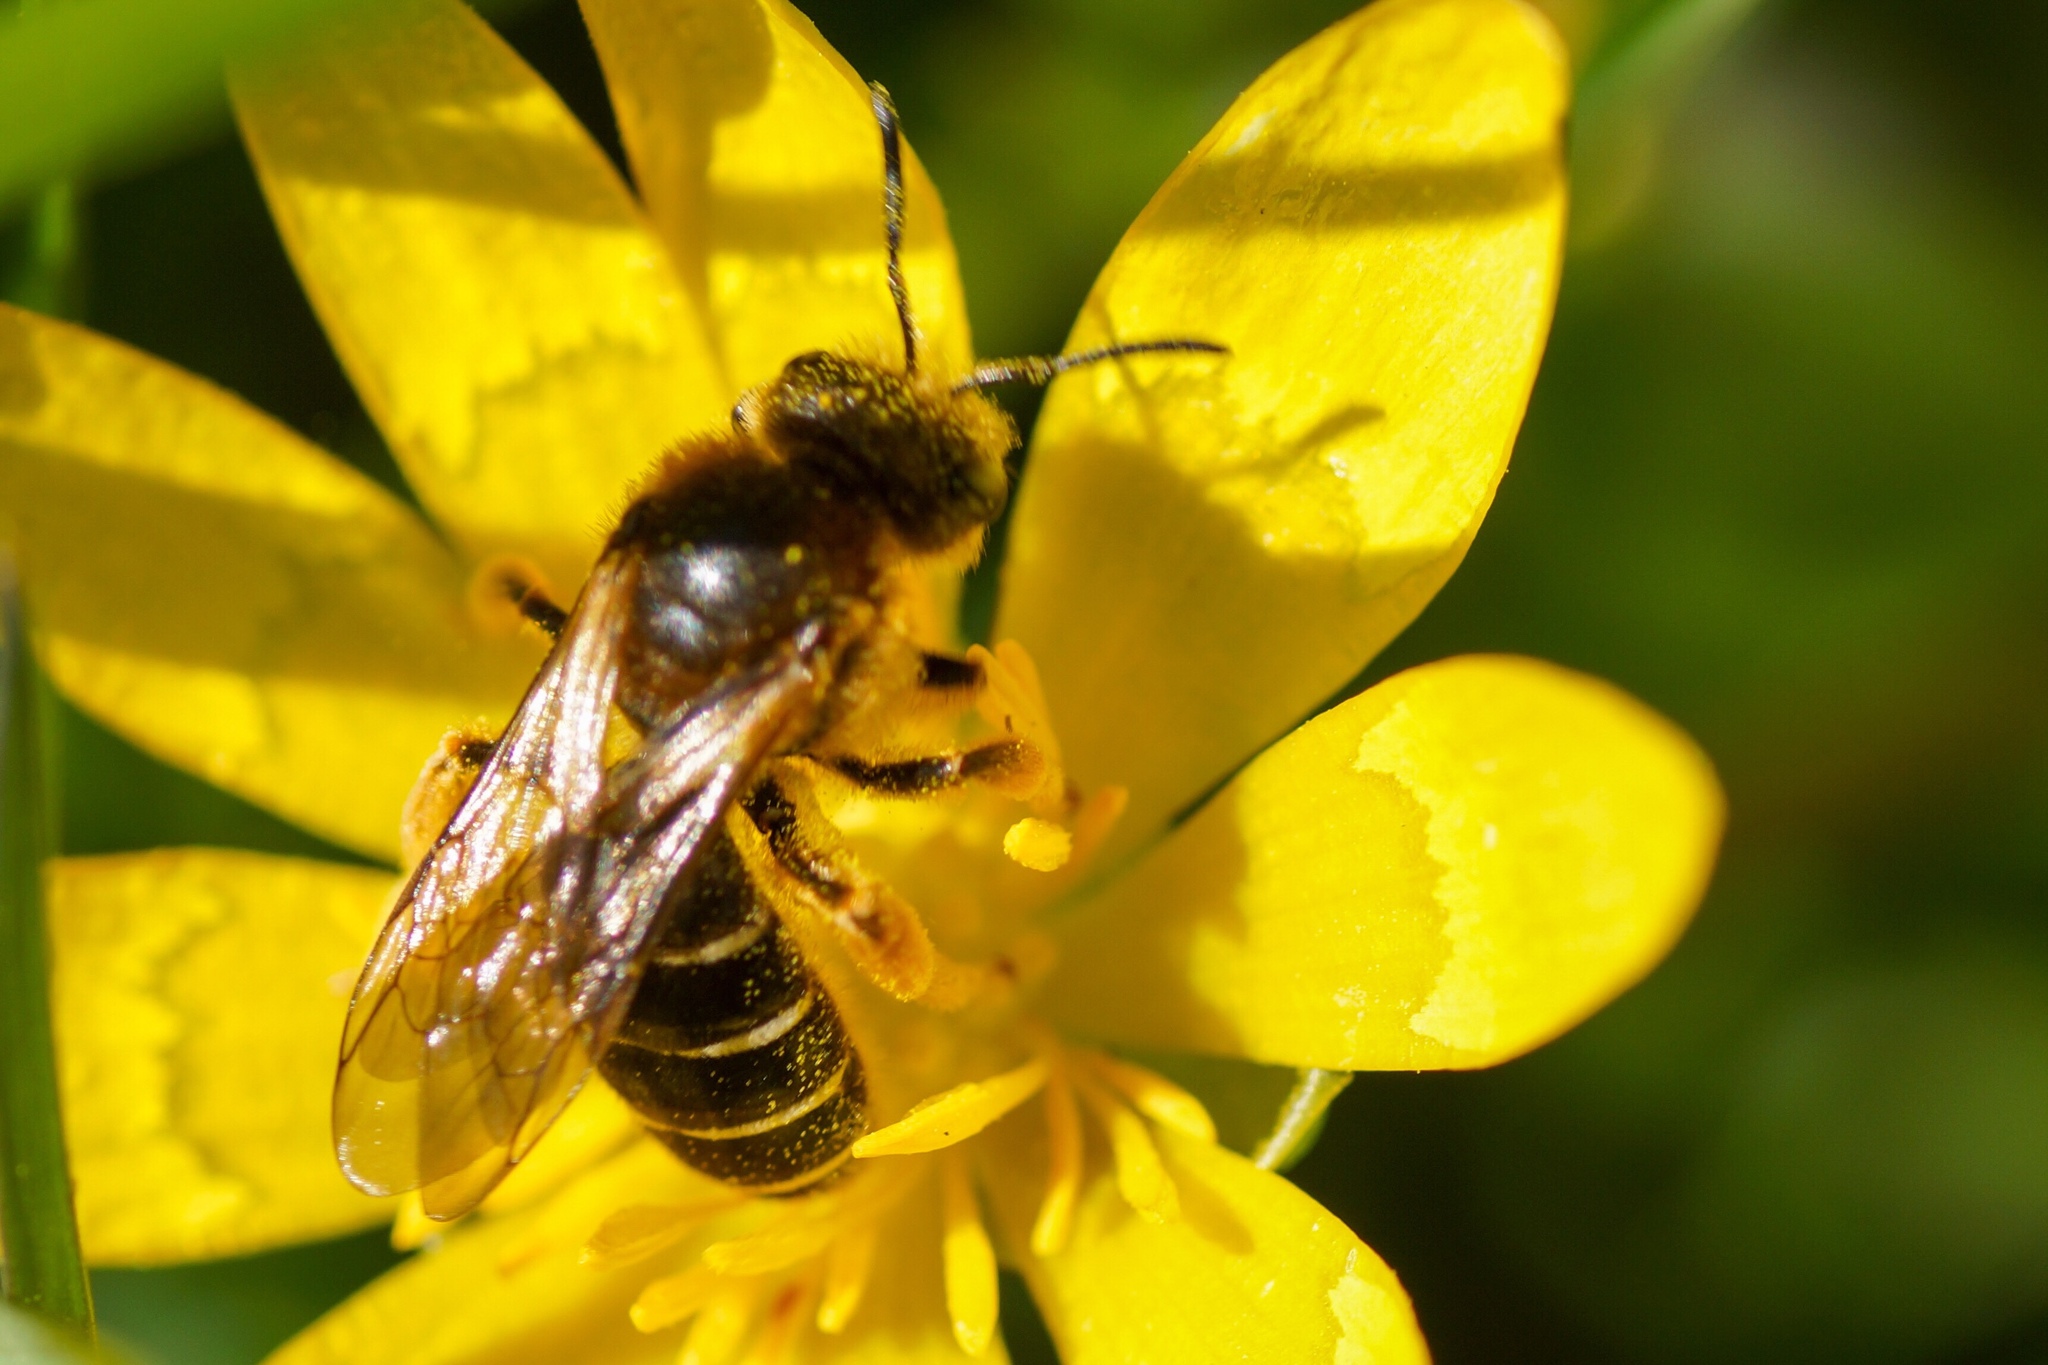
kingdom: Animalia
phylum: Arthropoda
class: Insecta
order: Hymenoptera
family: Halictidae
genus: Halictus
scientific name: Halictus rubicundus
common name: Orange-legged furrow bee
